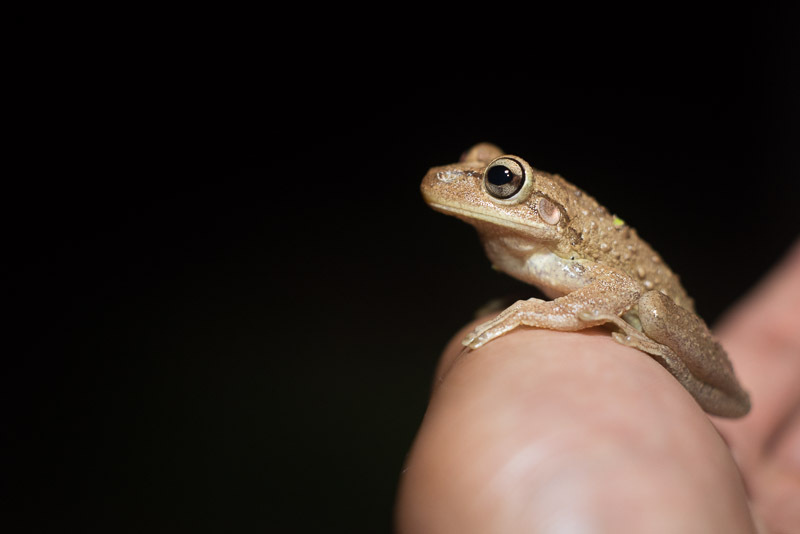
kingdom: Animalia
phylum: Chordata
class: Amphibia
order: Anura
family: Hylidae
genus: Osteopilus
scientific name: Osteopilus septentrionalis
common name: Cuban treefrog
